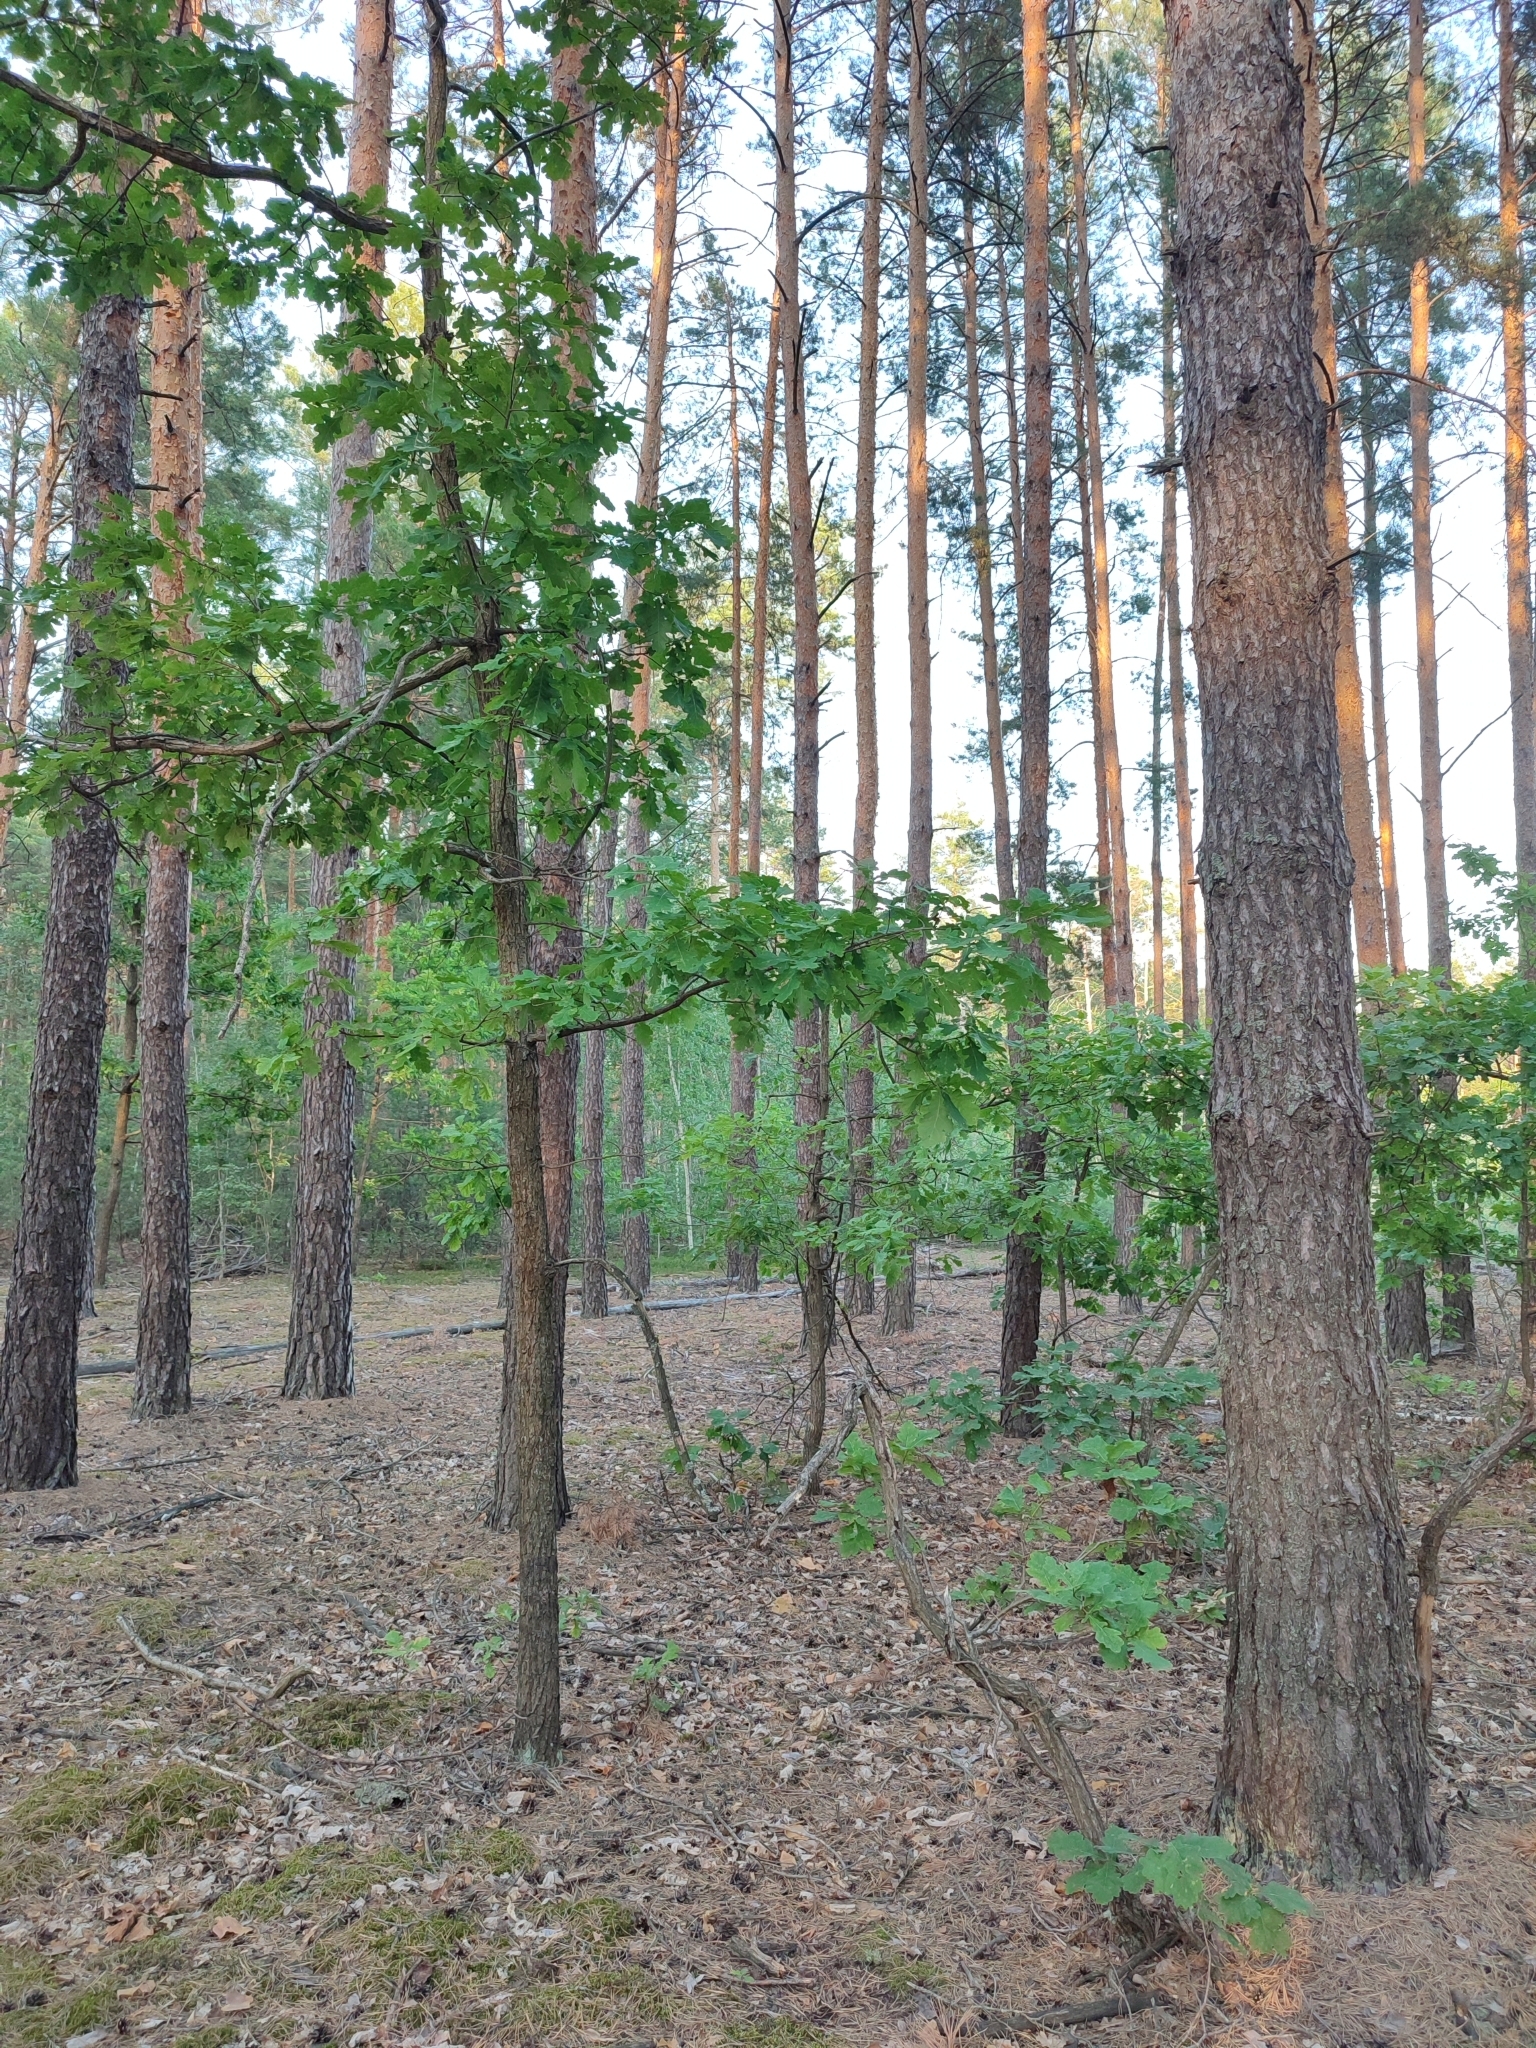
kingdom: Plantae
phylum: Tracheophyta
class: Magnoliopsida
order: Fagales
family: Fagaceae
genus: Quercus
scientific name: Quercus robur
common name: Pedunculate oak
